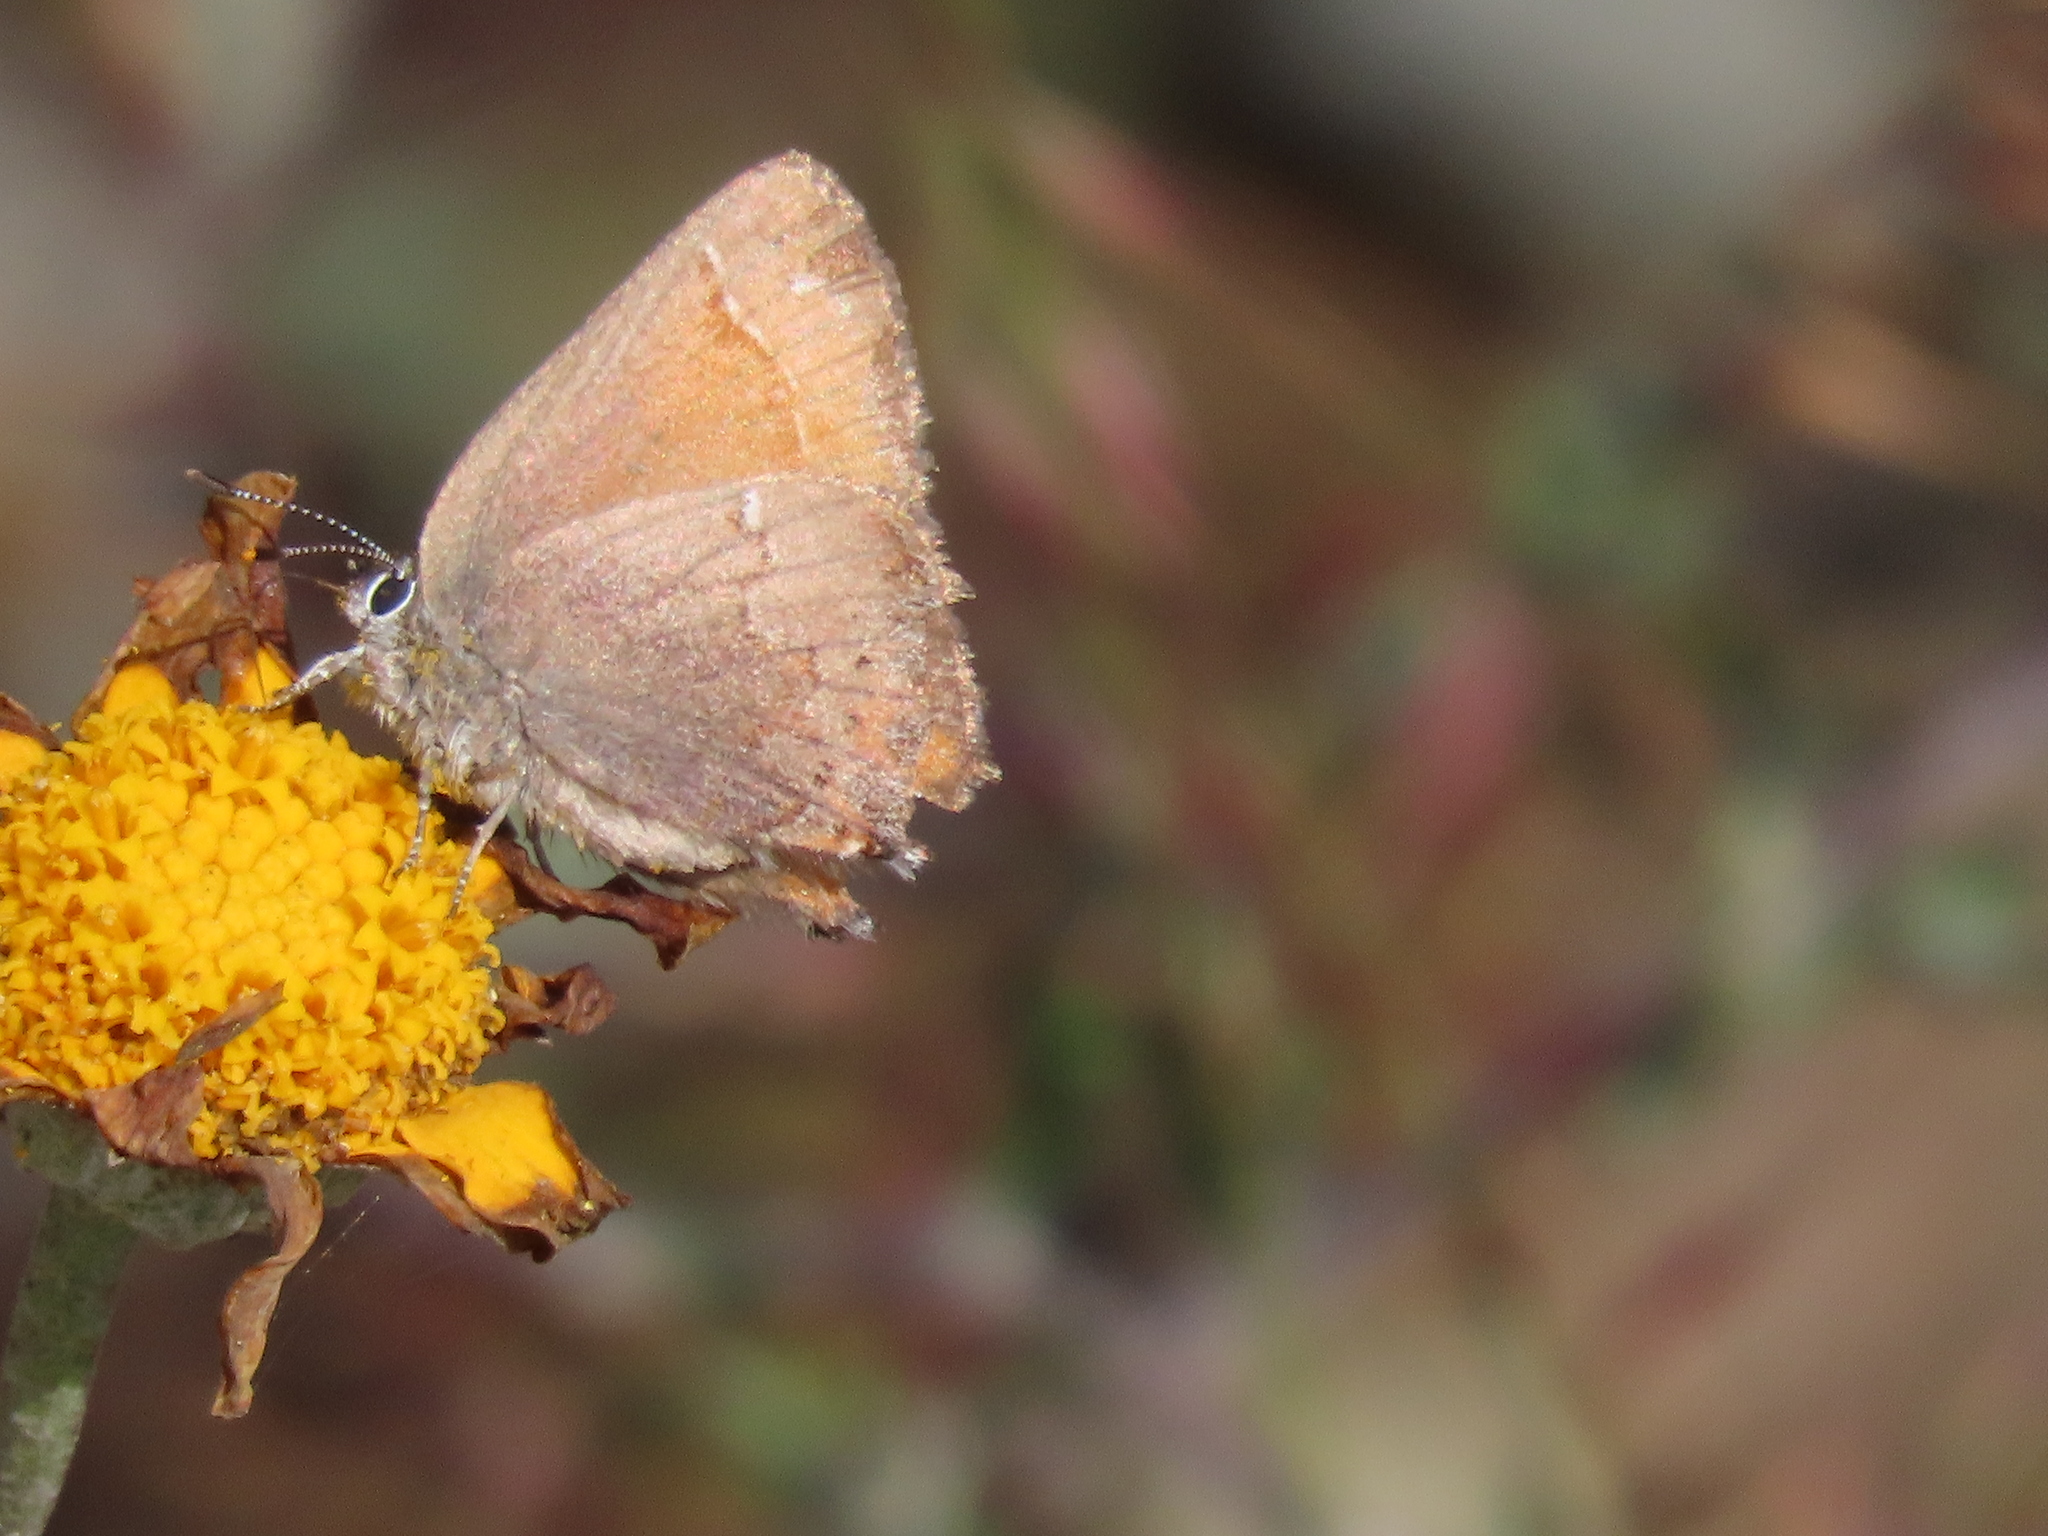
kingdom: Animalia
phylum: Arthropoda
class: Insecta
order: Lepidoptera
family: Lycaenidae
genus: Callophrys
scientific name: Callophrys muiri
